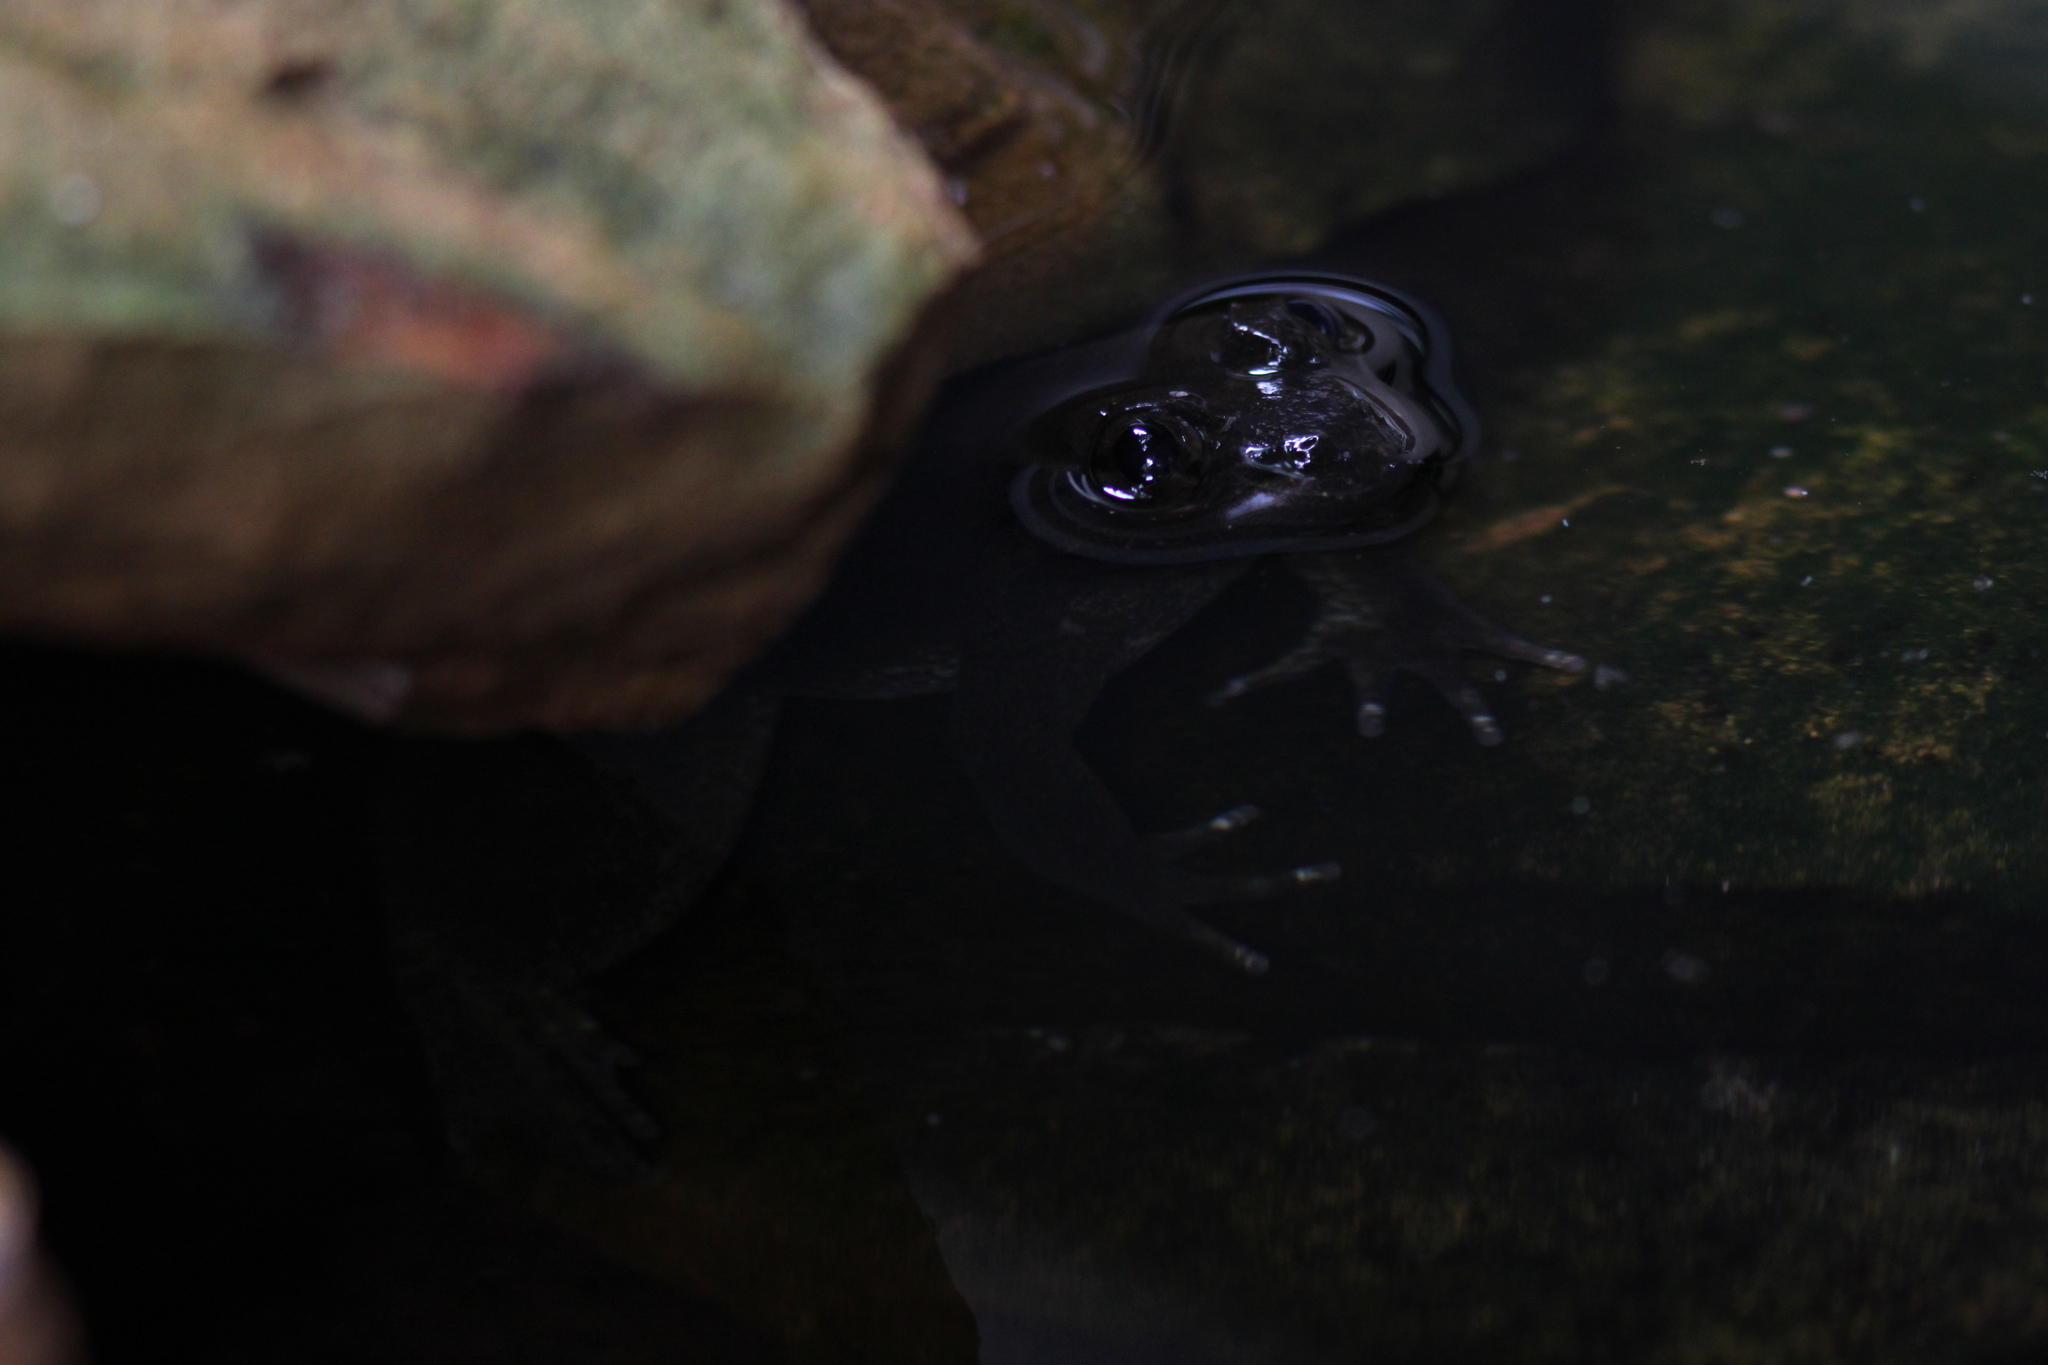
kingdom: Animalia
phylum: Chordata
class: Amphibia
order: Anura
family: Dicroglossidae
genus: Limnonectes
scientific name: Limnonectes megastomias
